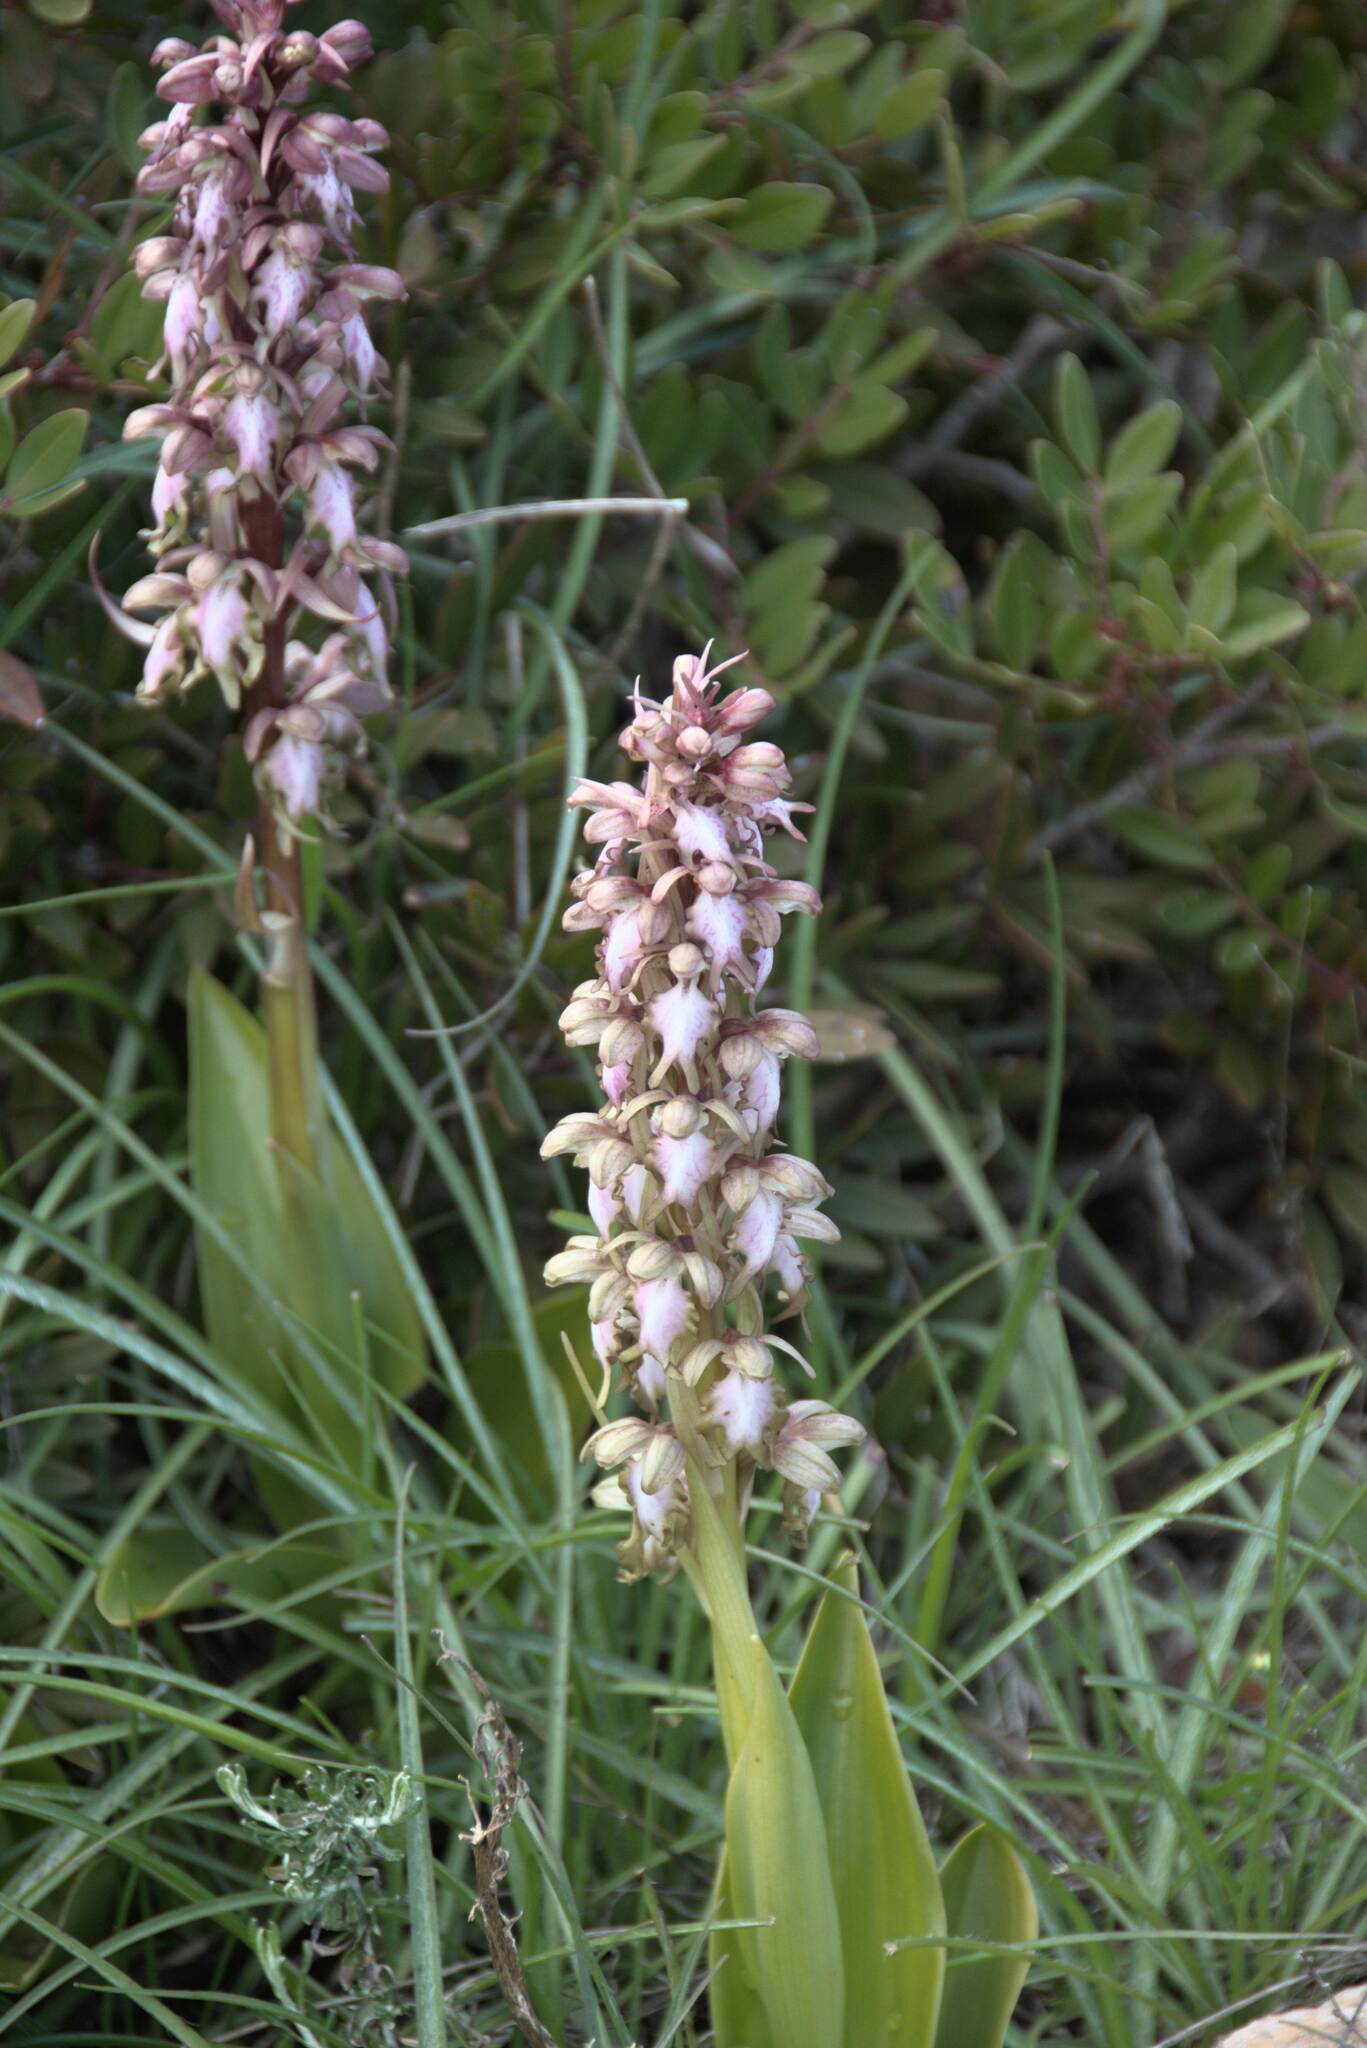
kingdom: Plantae
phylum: Tracheophyta
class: Liliopsida
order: Asparagales
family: Orchidaceae
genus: Himantoglossum
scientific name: Himantoglossum robertianum
